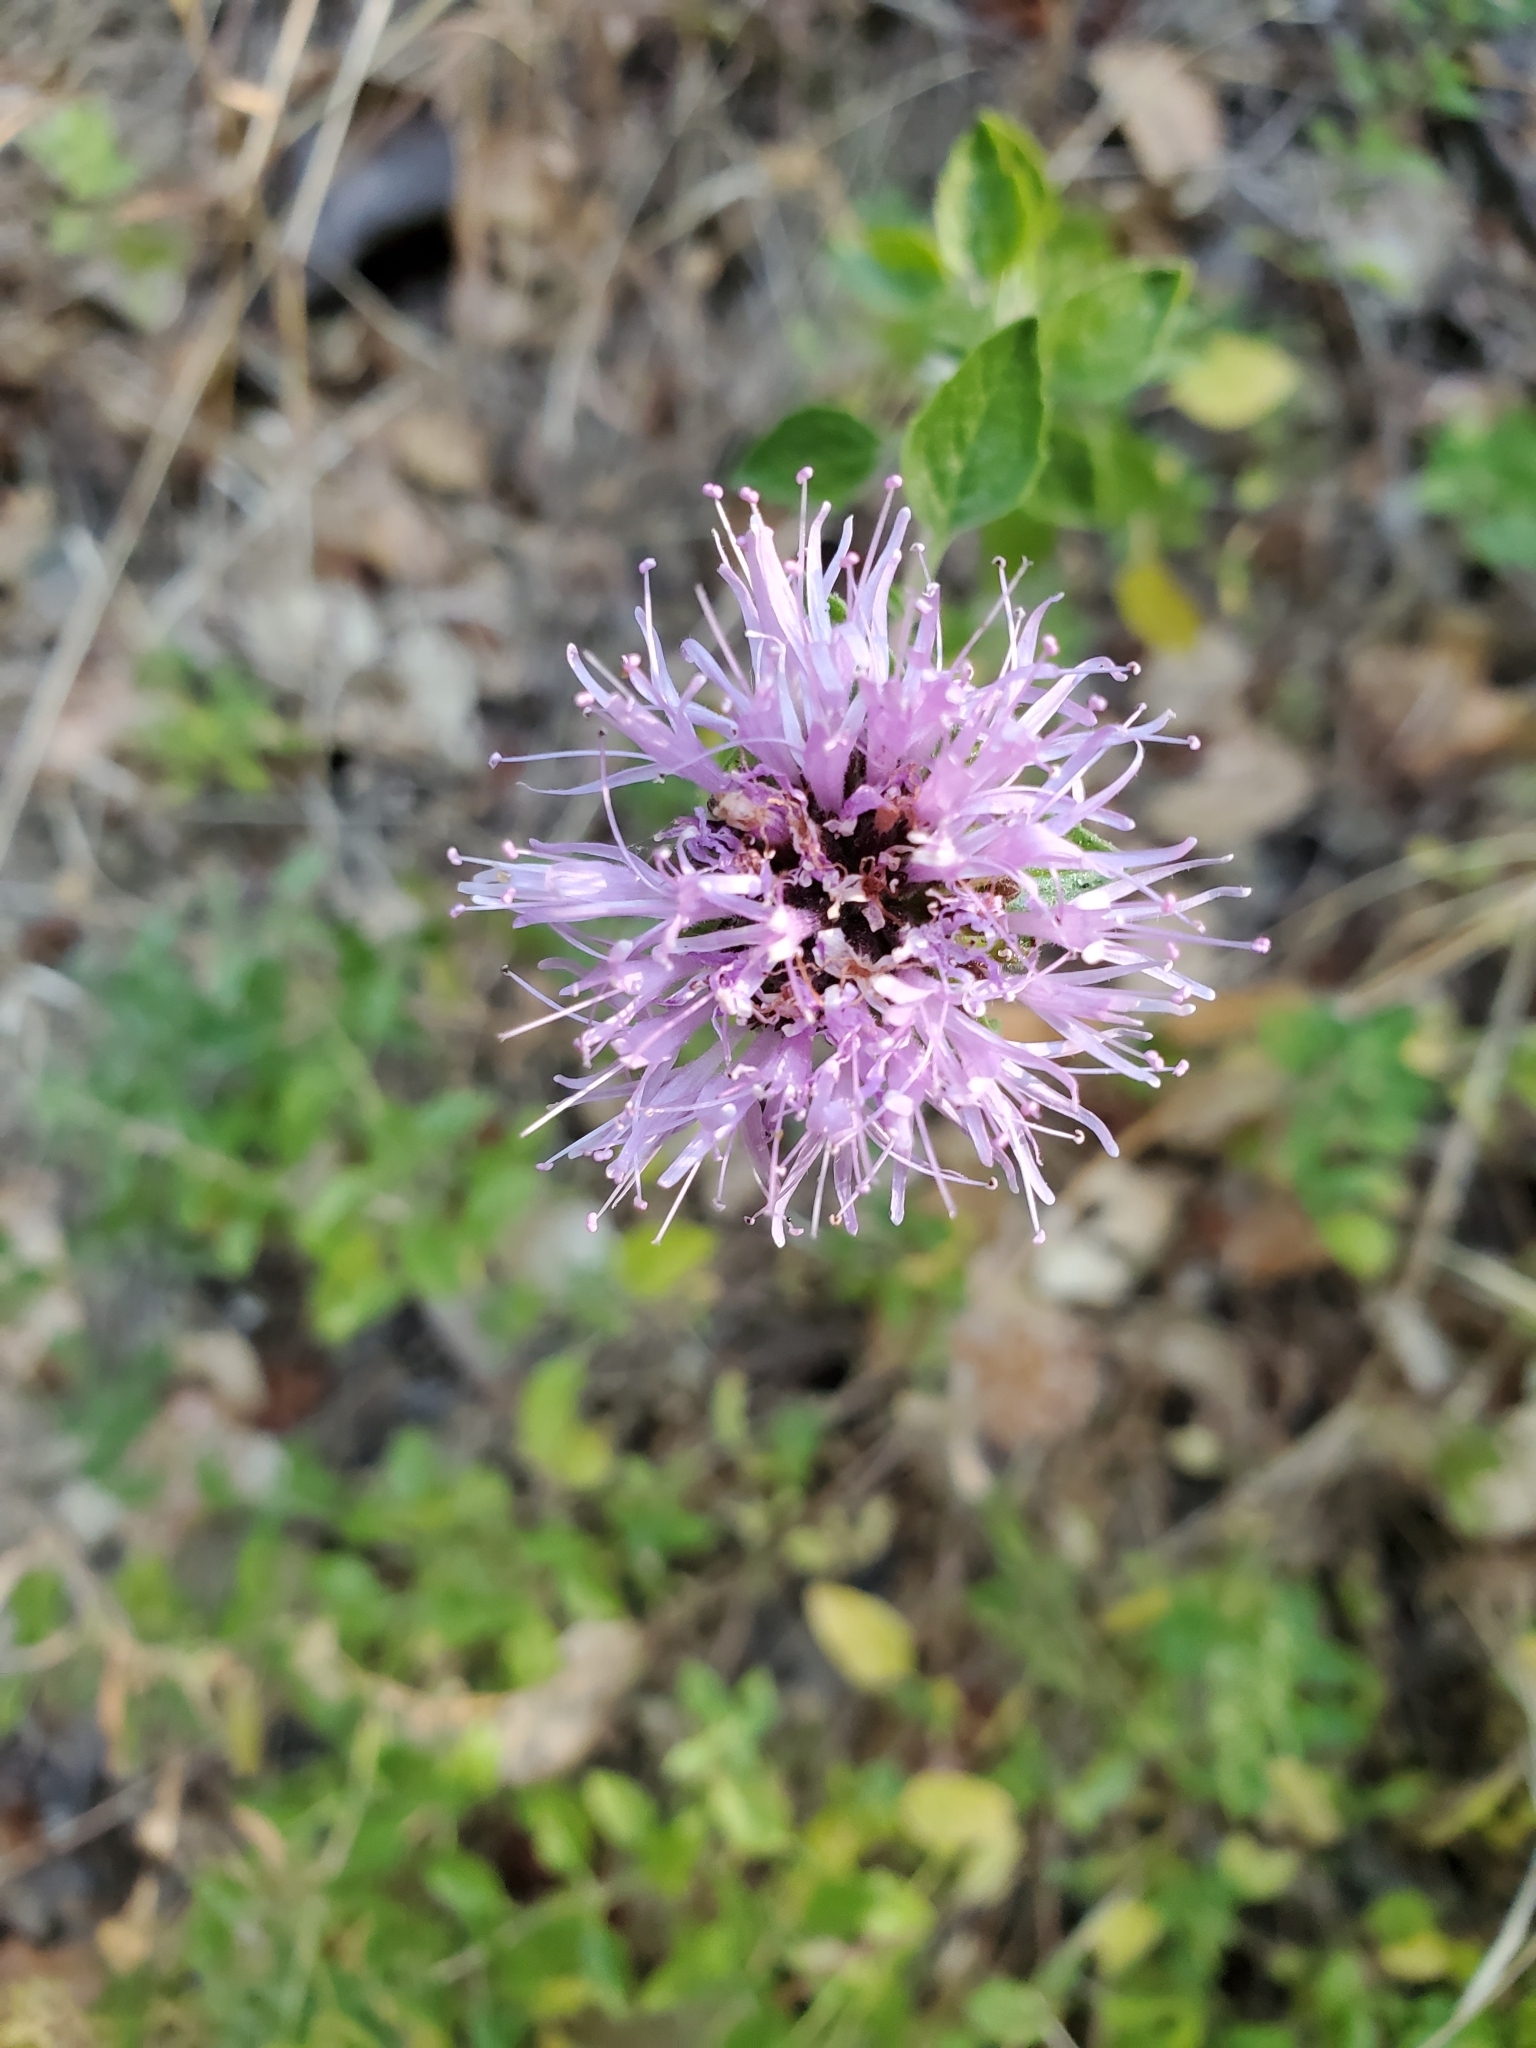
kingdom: Plantae
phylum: Tracheophyta
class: Magnoliopsida
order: Lamiales
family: Lamiaceae
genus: Monardella
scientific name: Monardella odoratissima
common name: Pacific monardella
